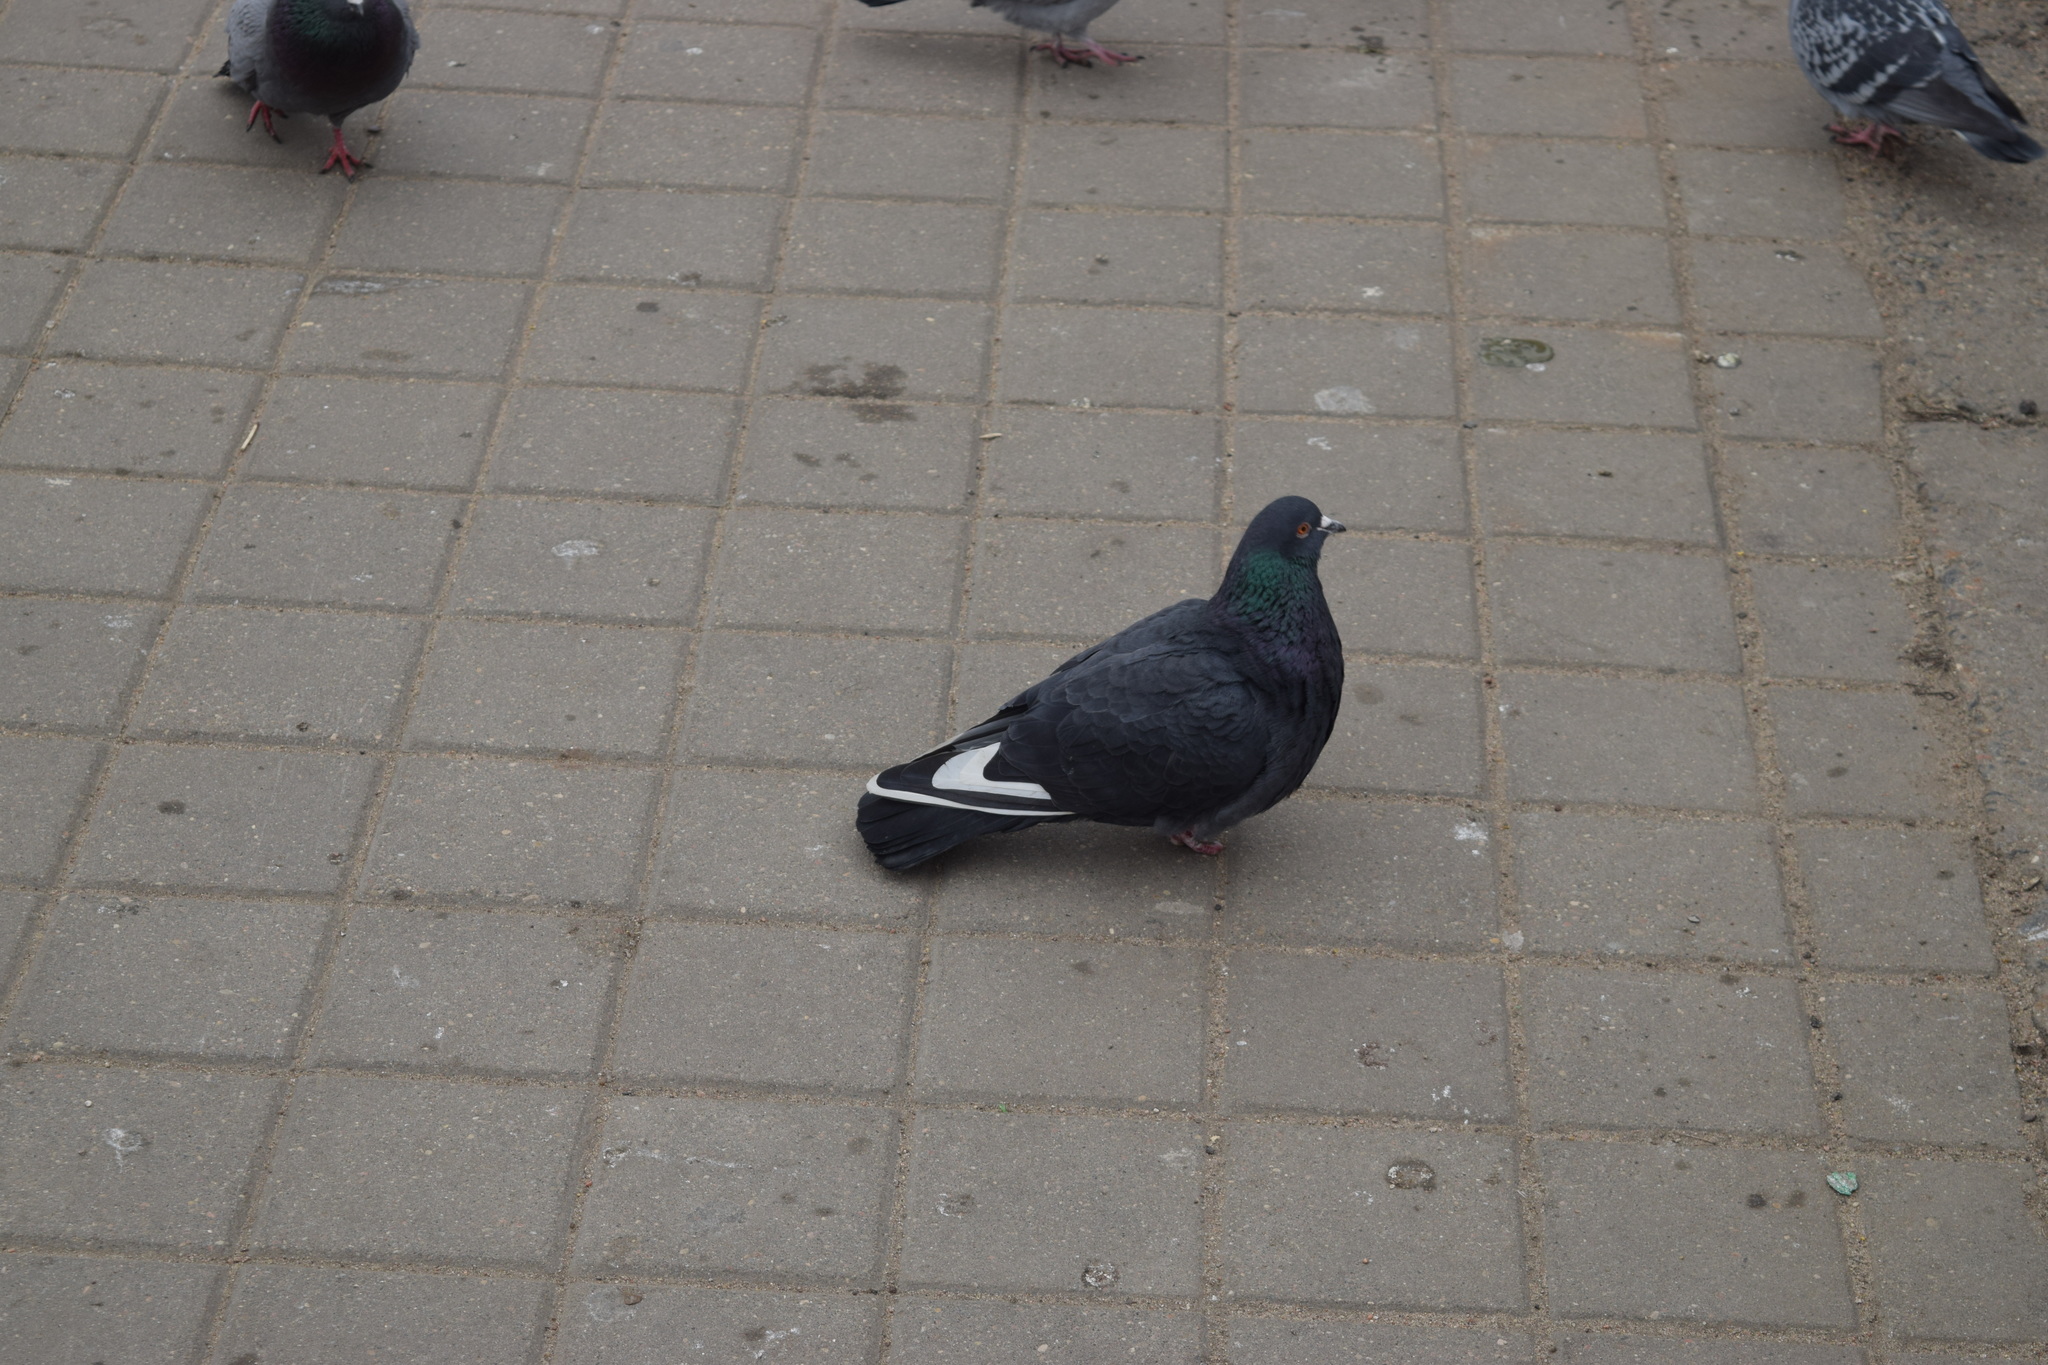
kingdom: Animalia
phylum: Chordata
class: Aves
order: Columbiformes
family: Columbidae
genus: Columba
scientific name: Columba livia
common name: Rock pigeon
